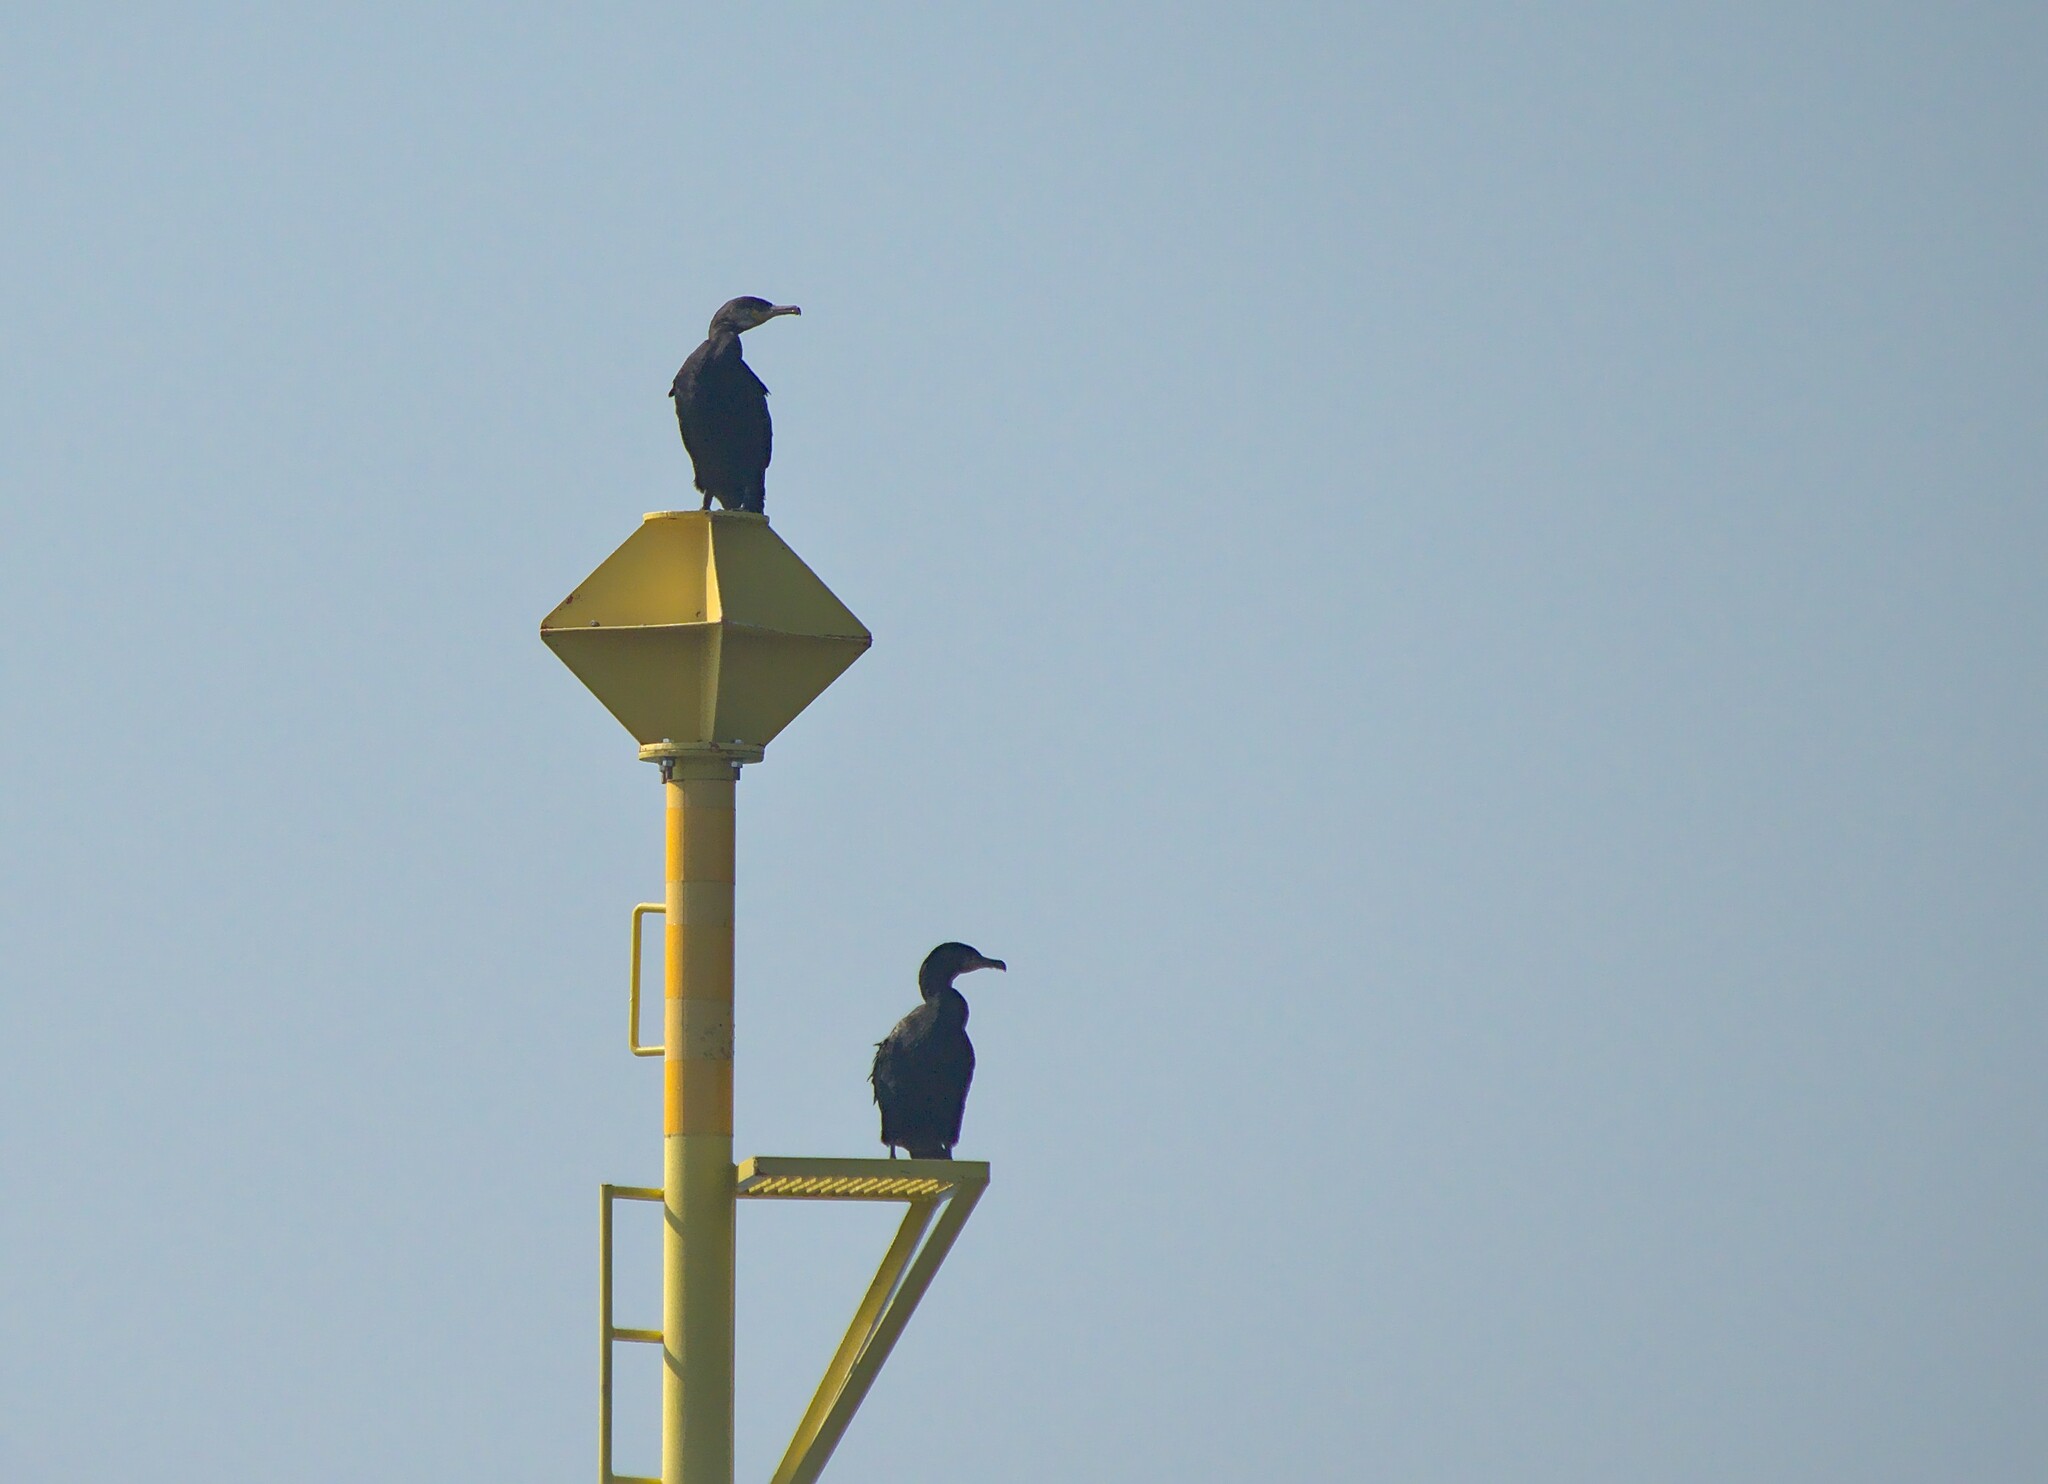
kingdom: Animalia
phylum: Chordata
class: Aves
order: Suliformes
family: Phalacrocoracidae
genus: Phalacrocorax
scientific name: Phalacrocorax carbo
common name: Great cormorant
